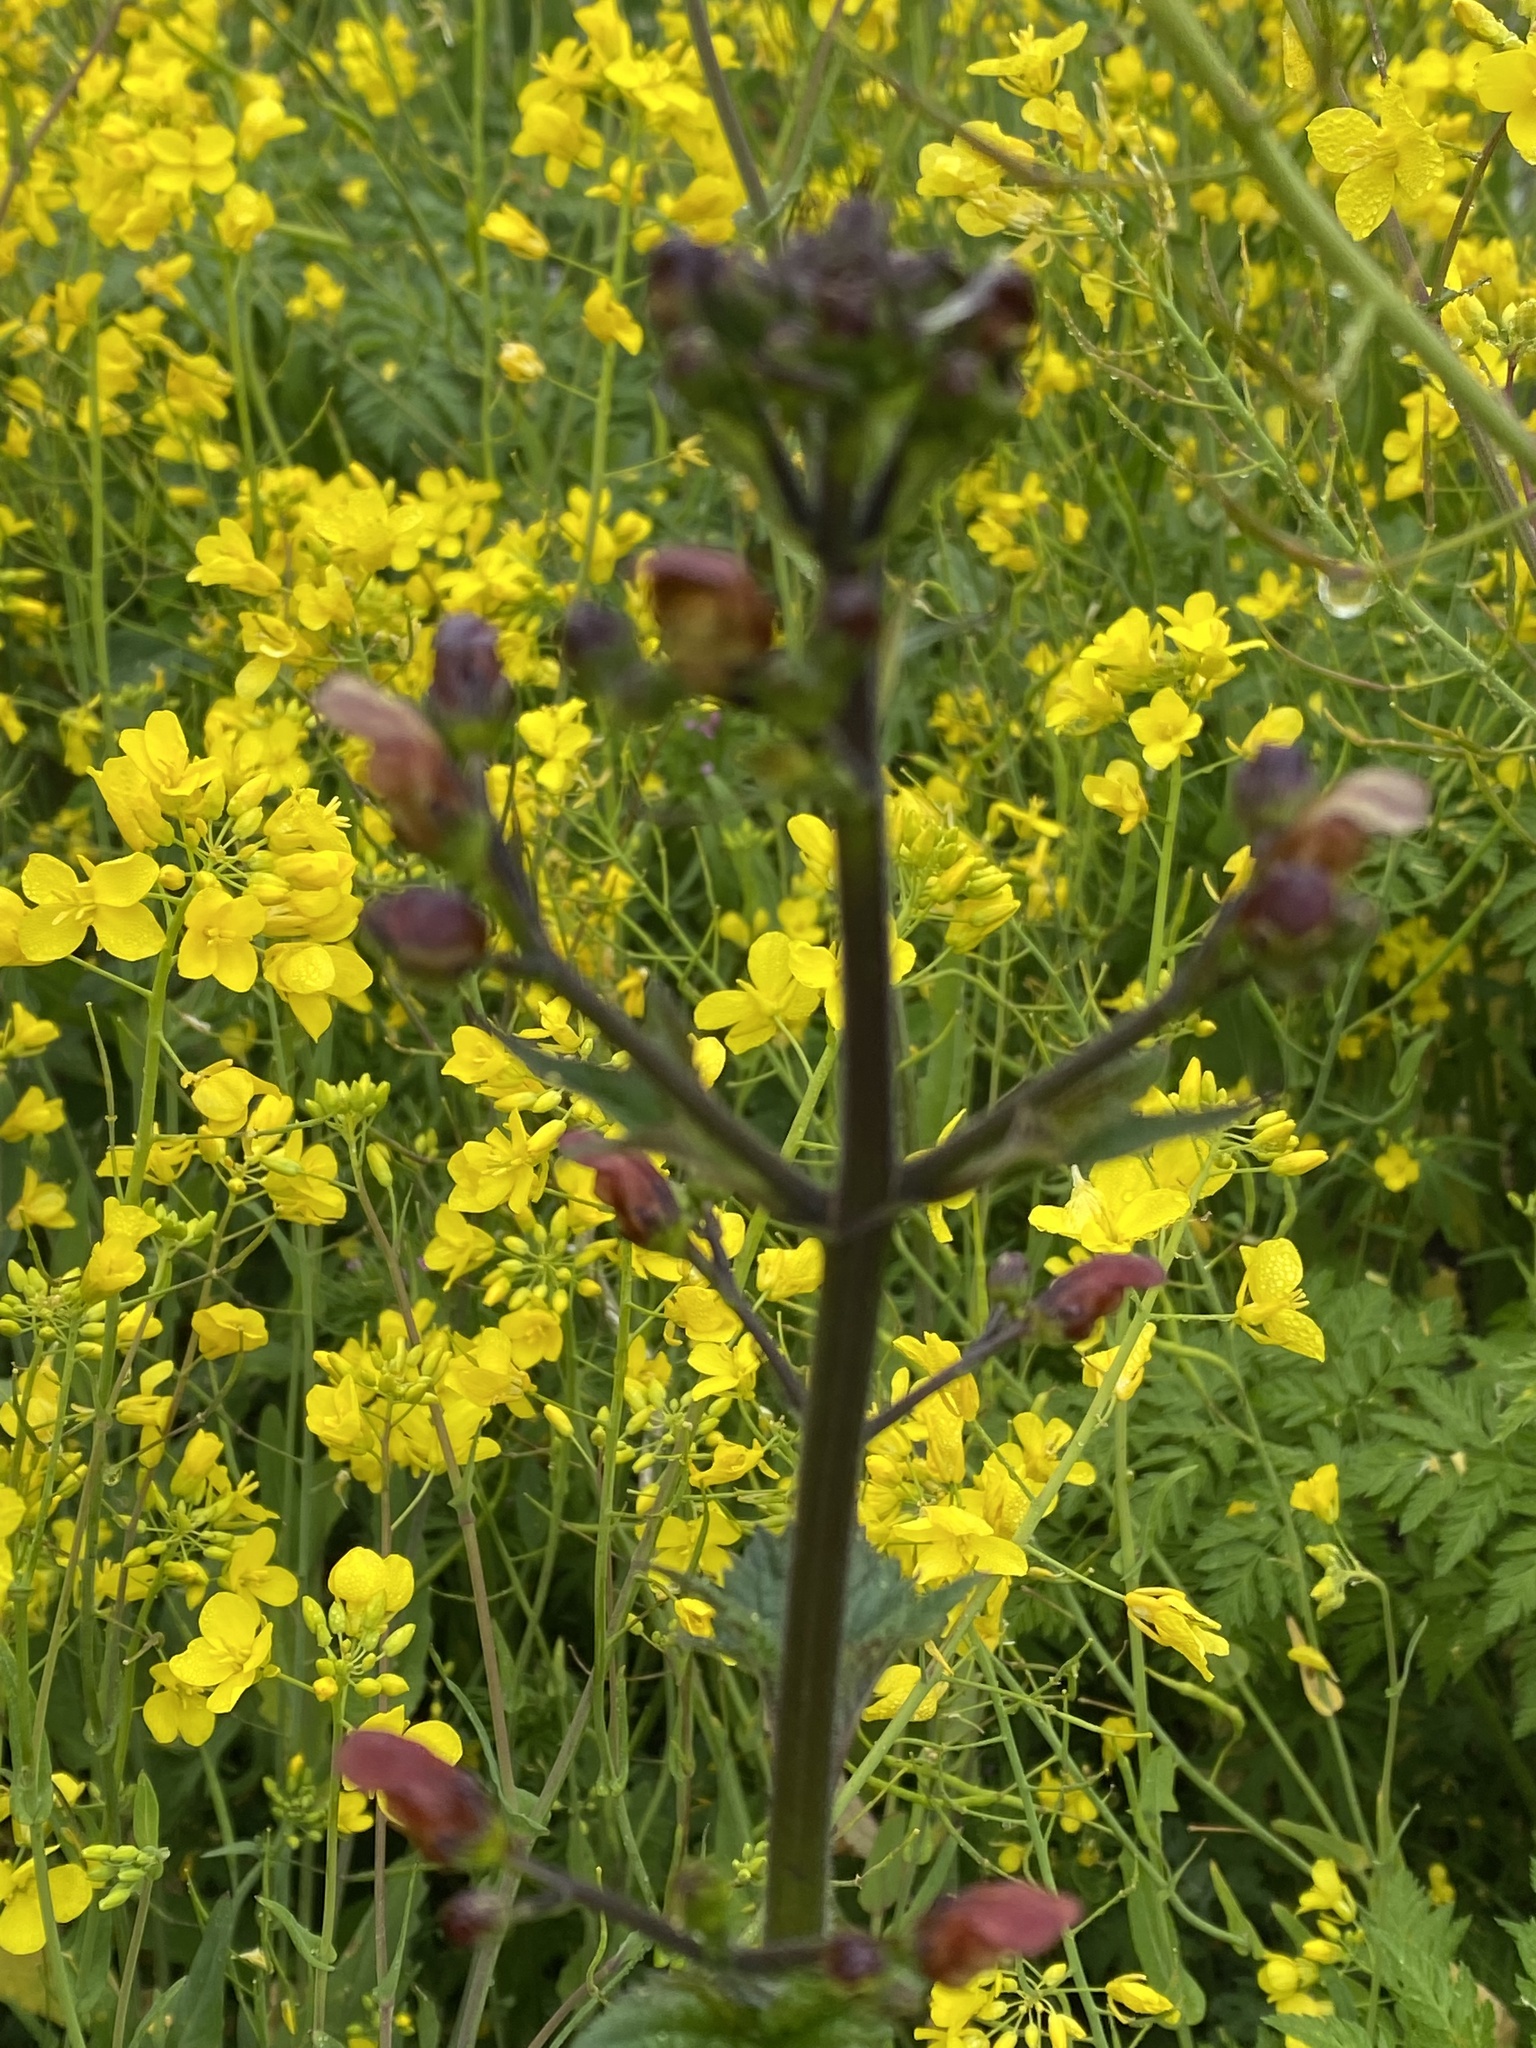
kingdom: Plantae
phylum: Tracheophyta
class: Magnoliopsida
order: Lamiales
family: Scrophulariaceae
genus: Scrophularia
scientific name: Scrophularia californica
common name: California figwort
